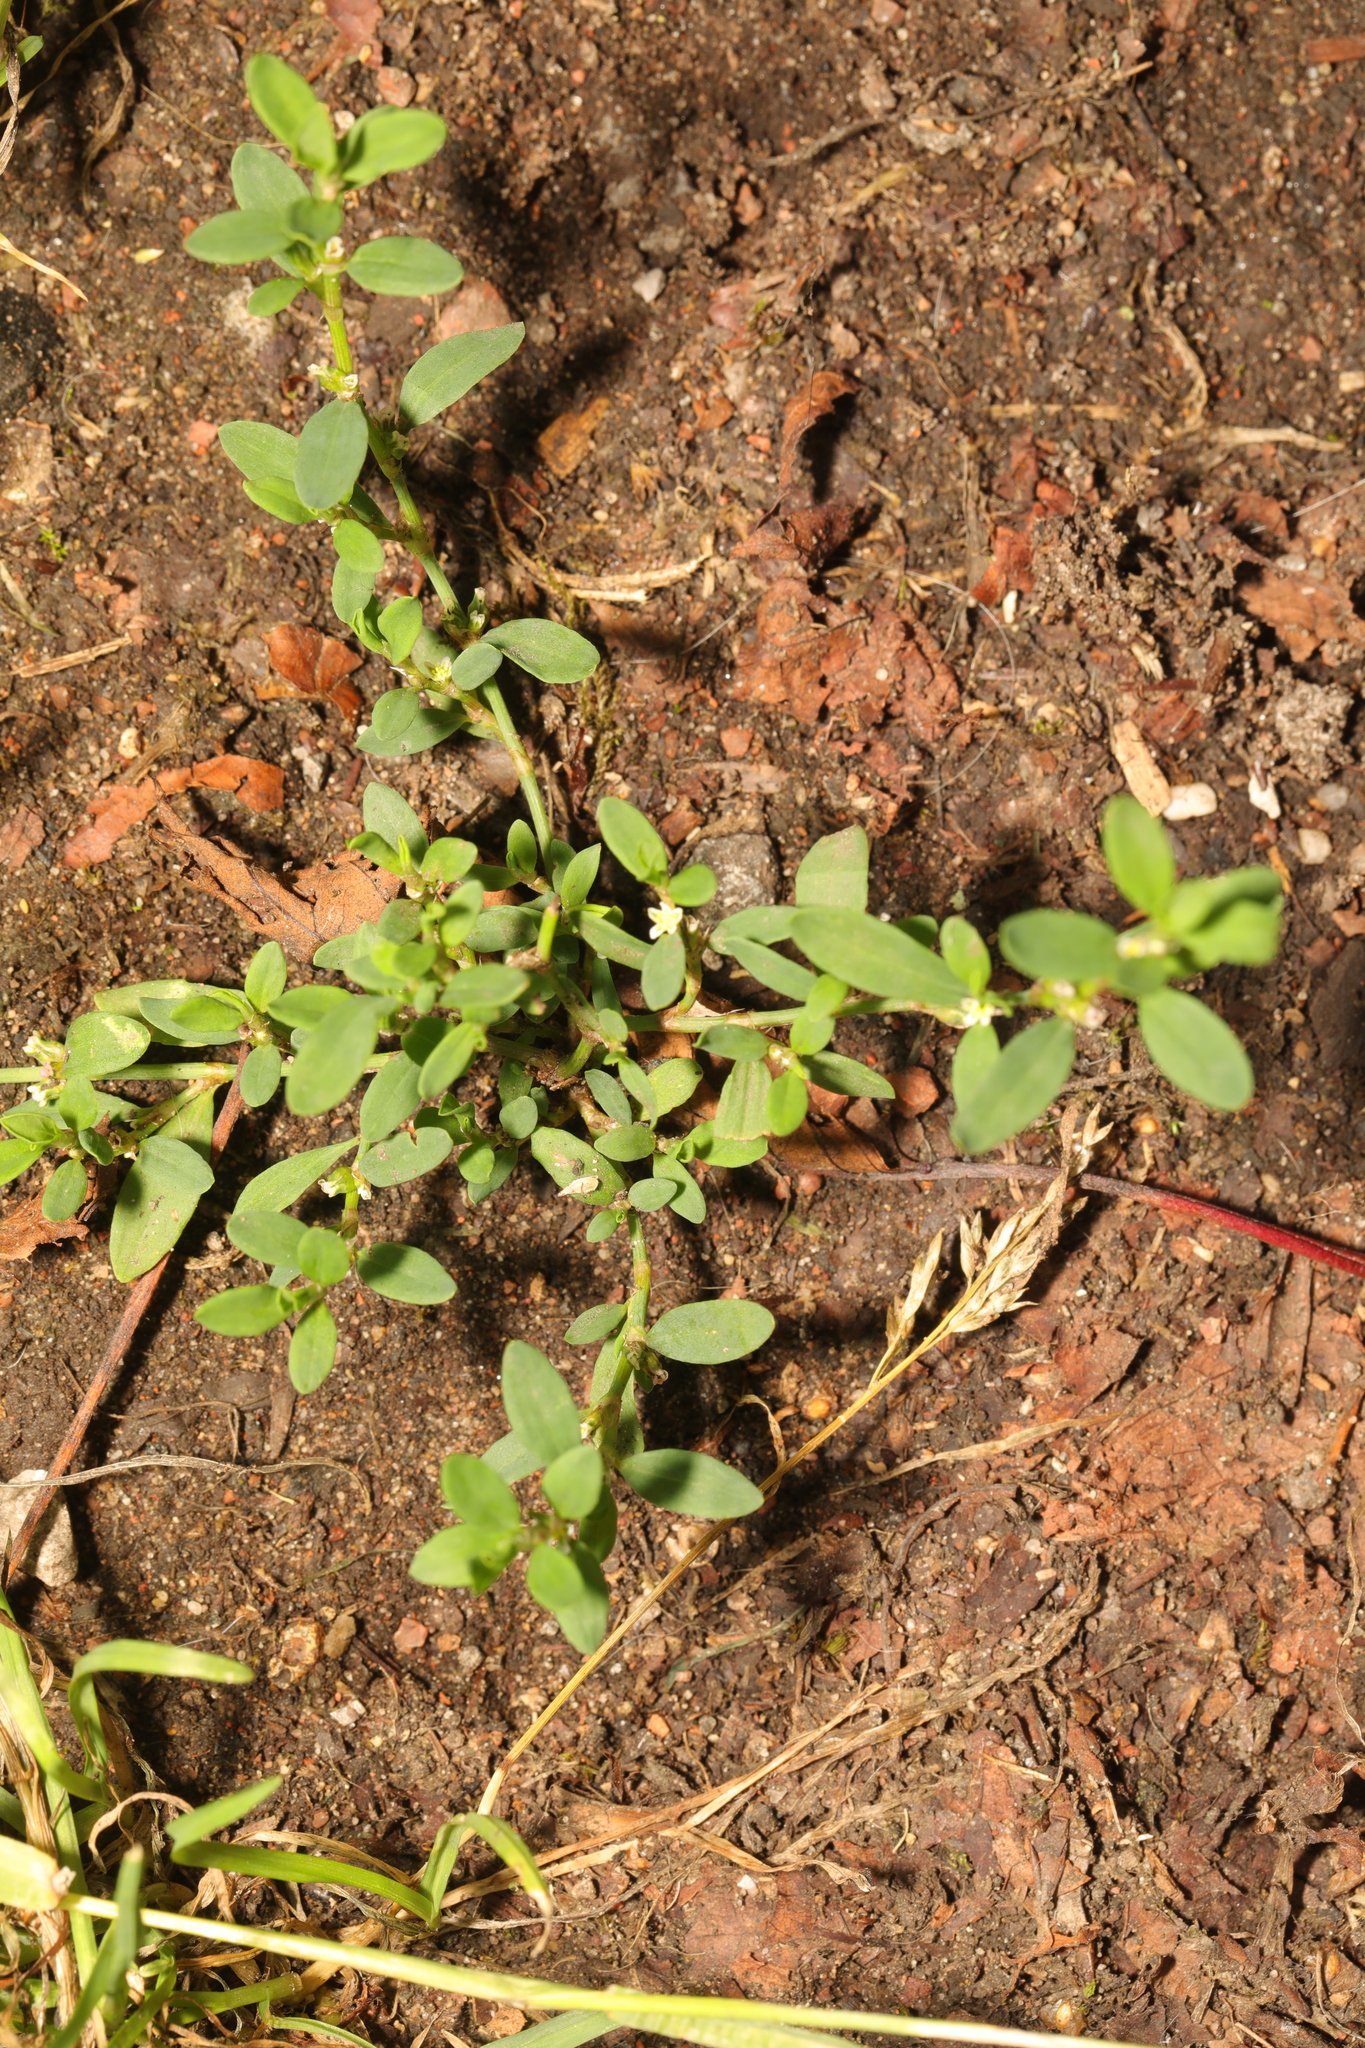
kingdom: Plantae
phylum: Tracheophyta
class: Magnoliopsida
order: Caryophyllales
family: Polygonaceae
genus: Polygonum
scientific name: Polygonum aviculare
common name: Prostrate knotweed
